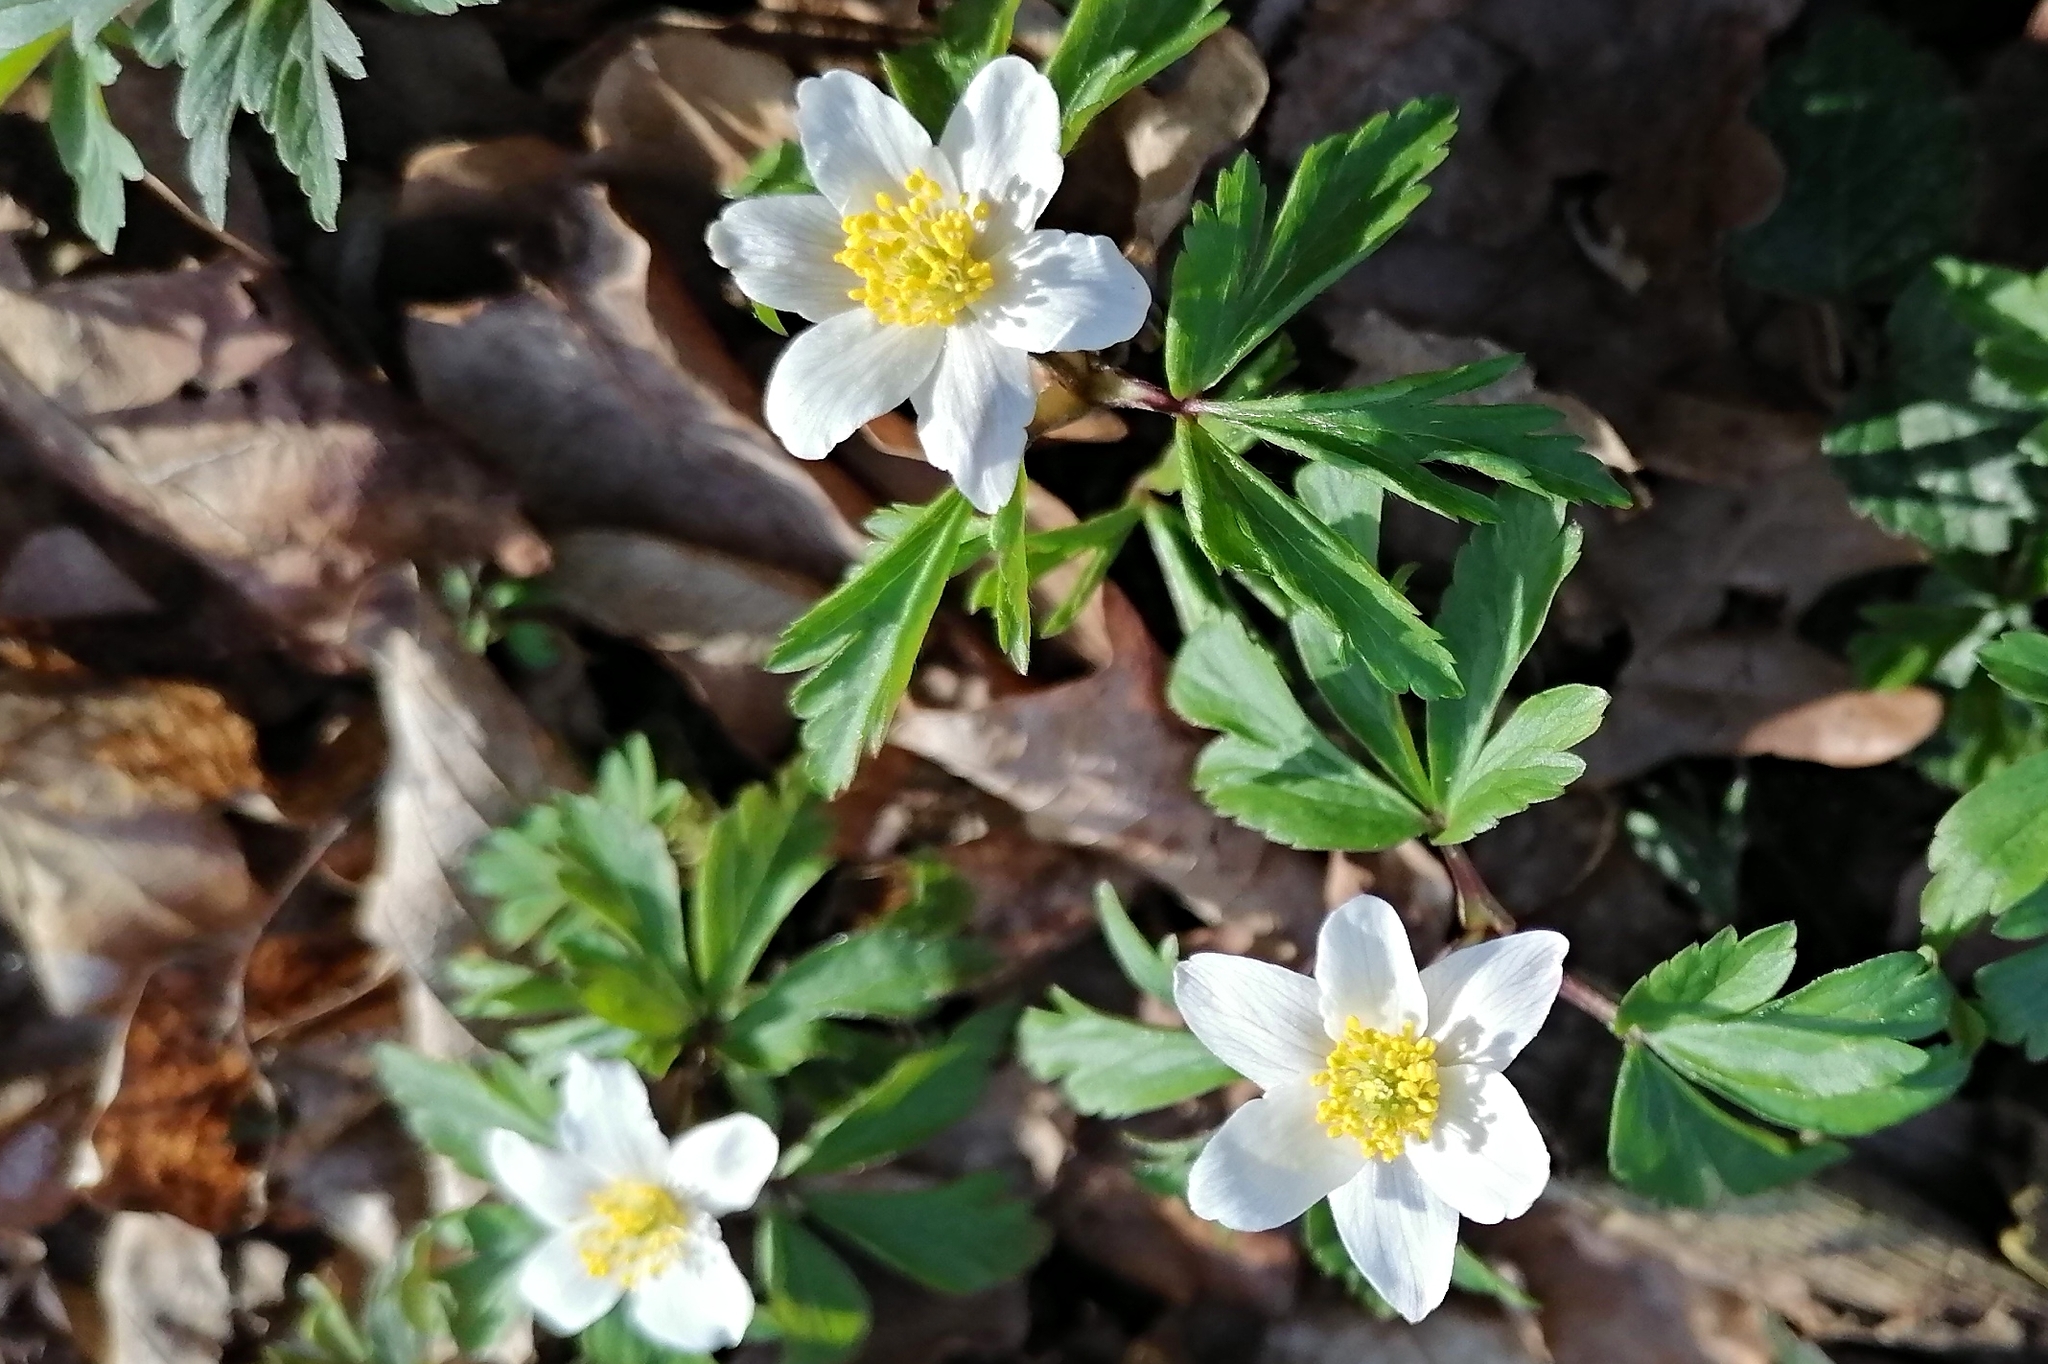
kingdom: Plantae
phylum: Tracheophyta
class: Magnoliopsida
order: Ranunculales
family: Ranunculaceae
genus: Anemone
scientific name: Anemone nemorosa
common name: Wood anemone
